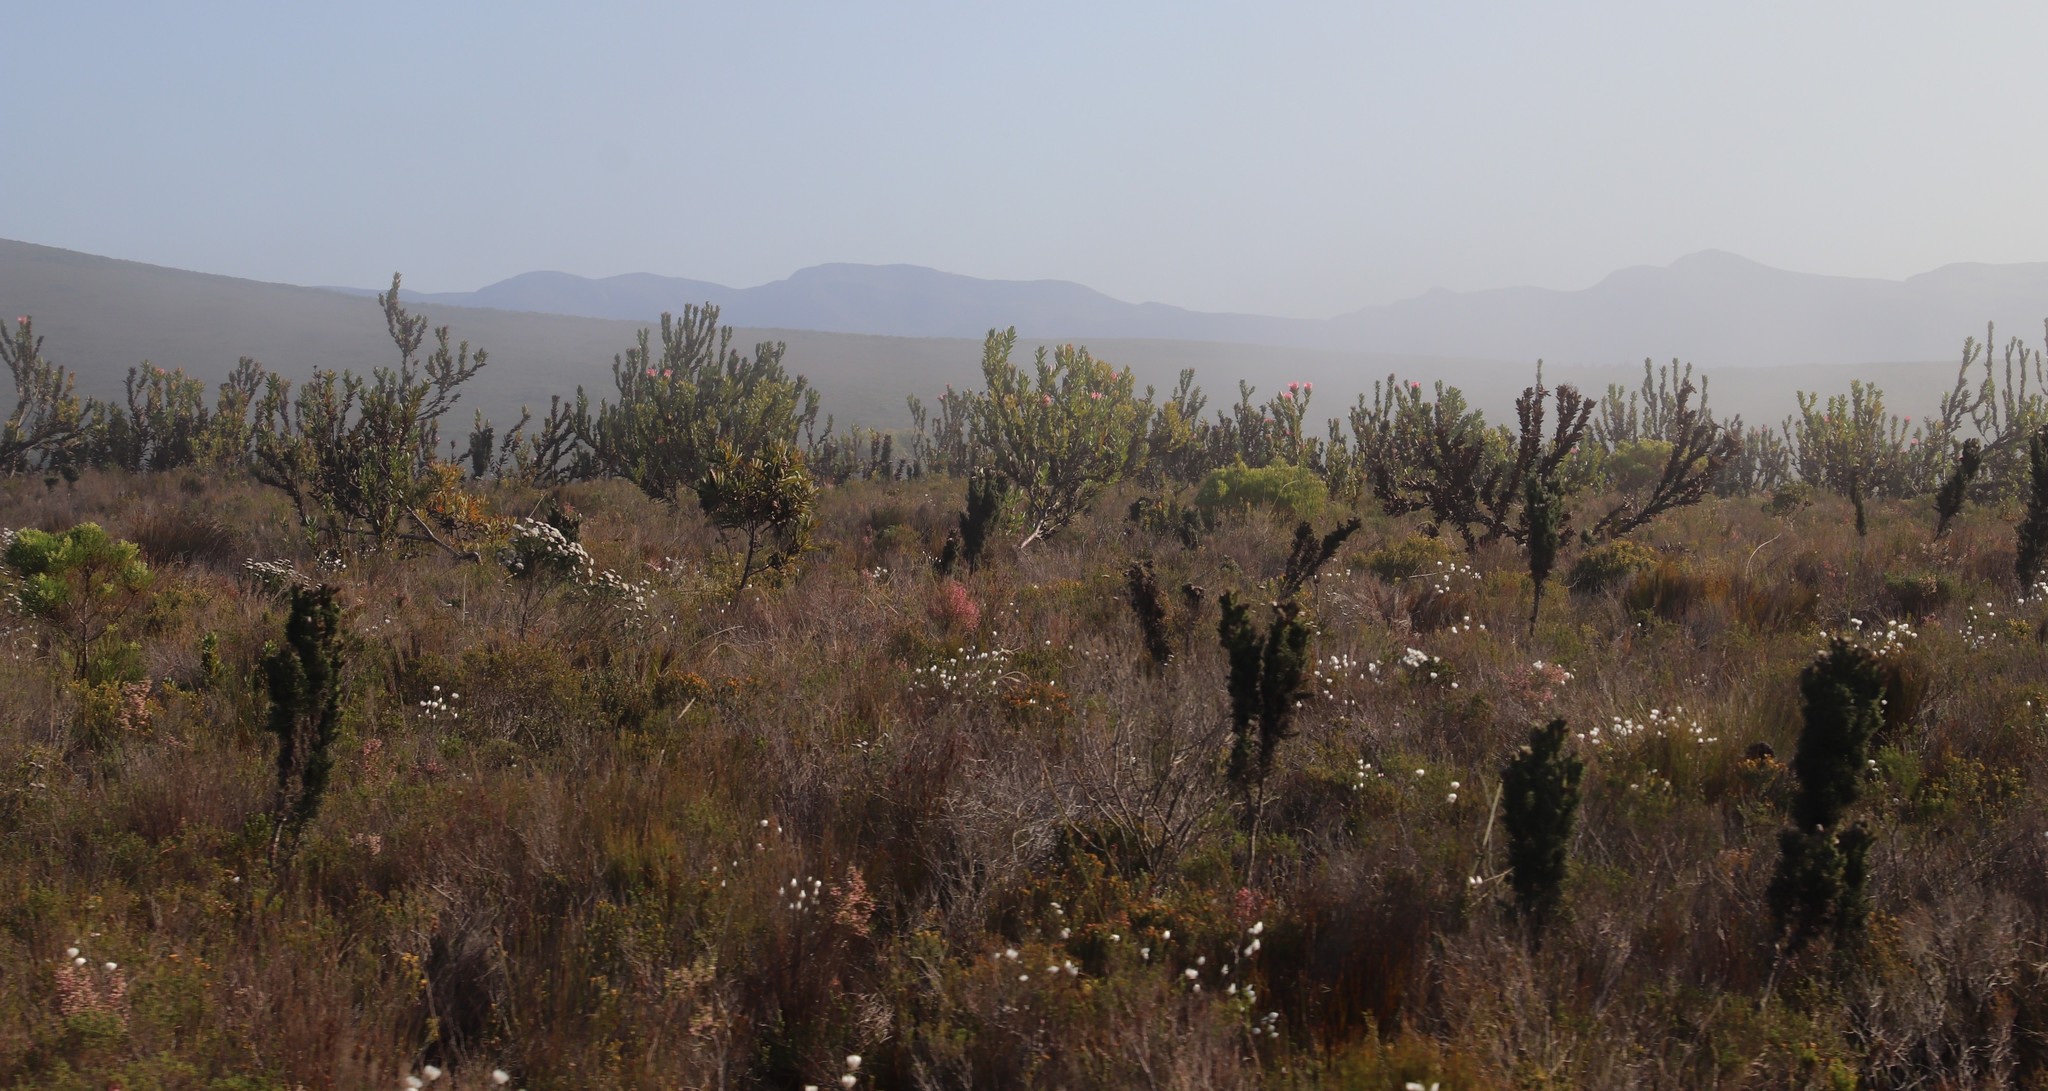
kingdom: Plantae
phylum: Tracheophyta
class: Magnoliopsida
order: Proteales
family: Proteaceae
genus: Protea
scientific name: Protea compacta
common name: Bot river protea
